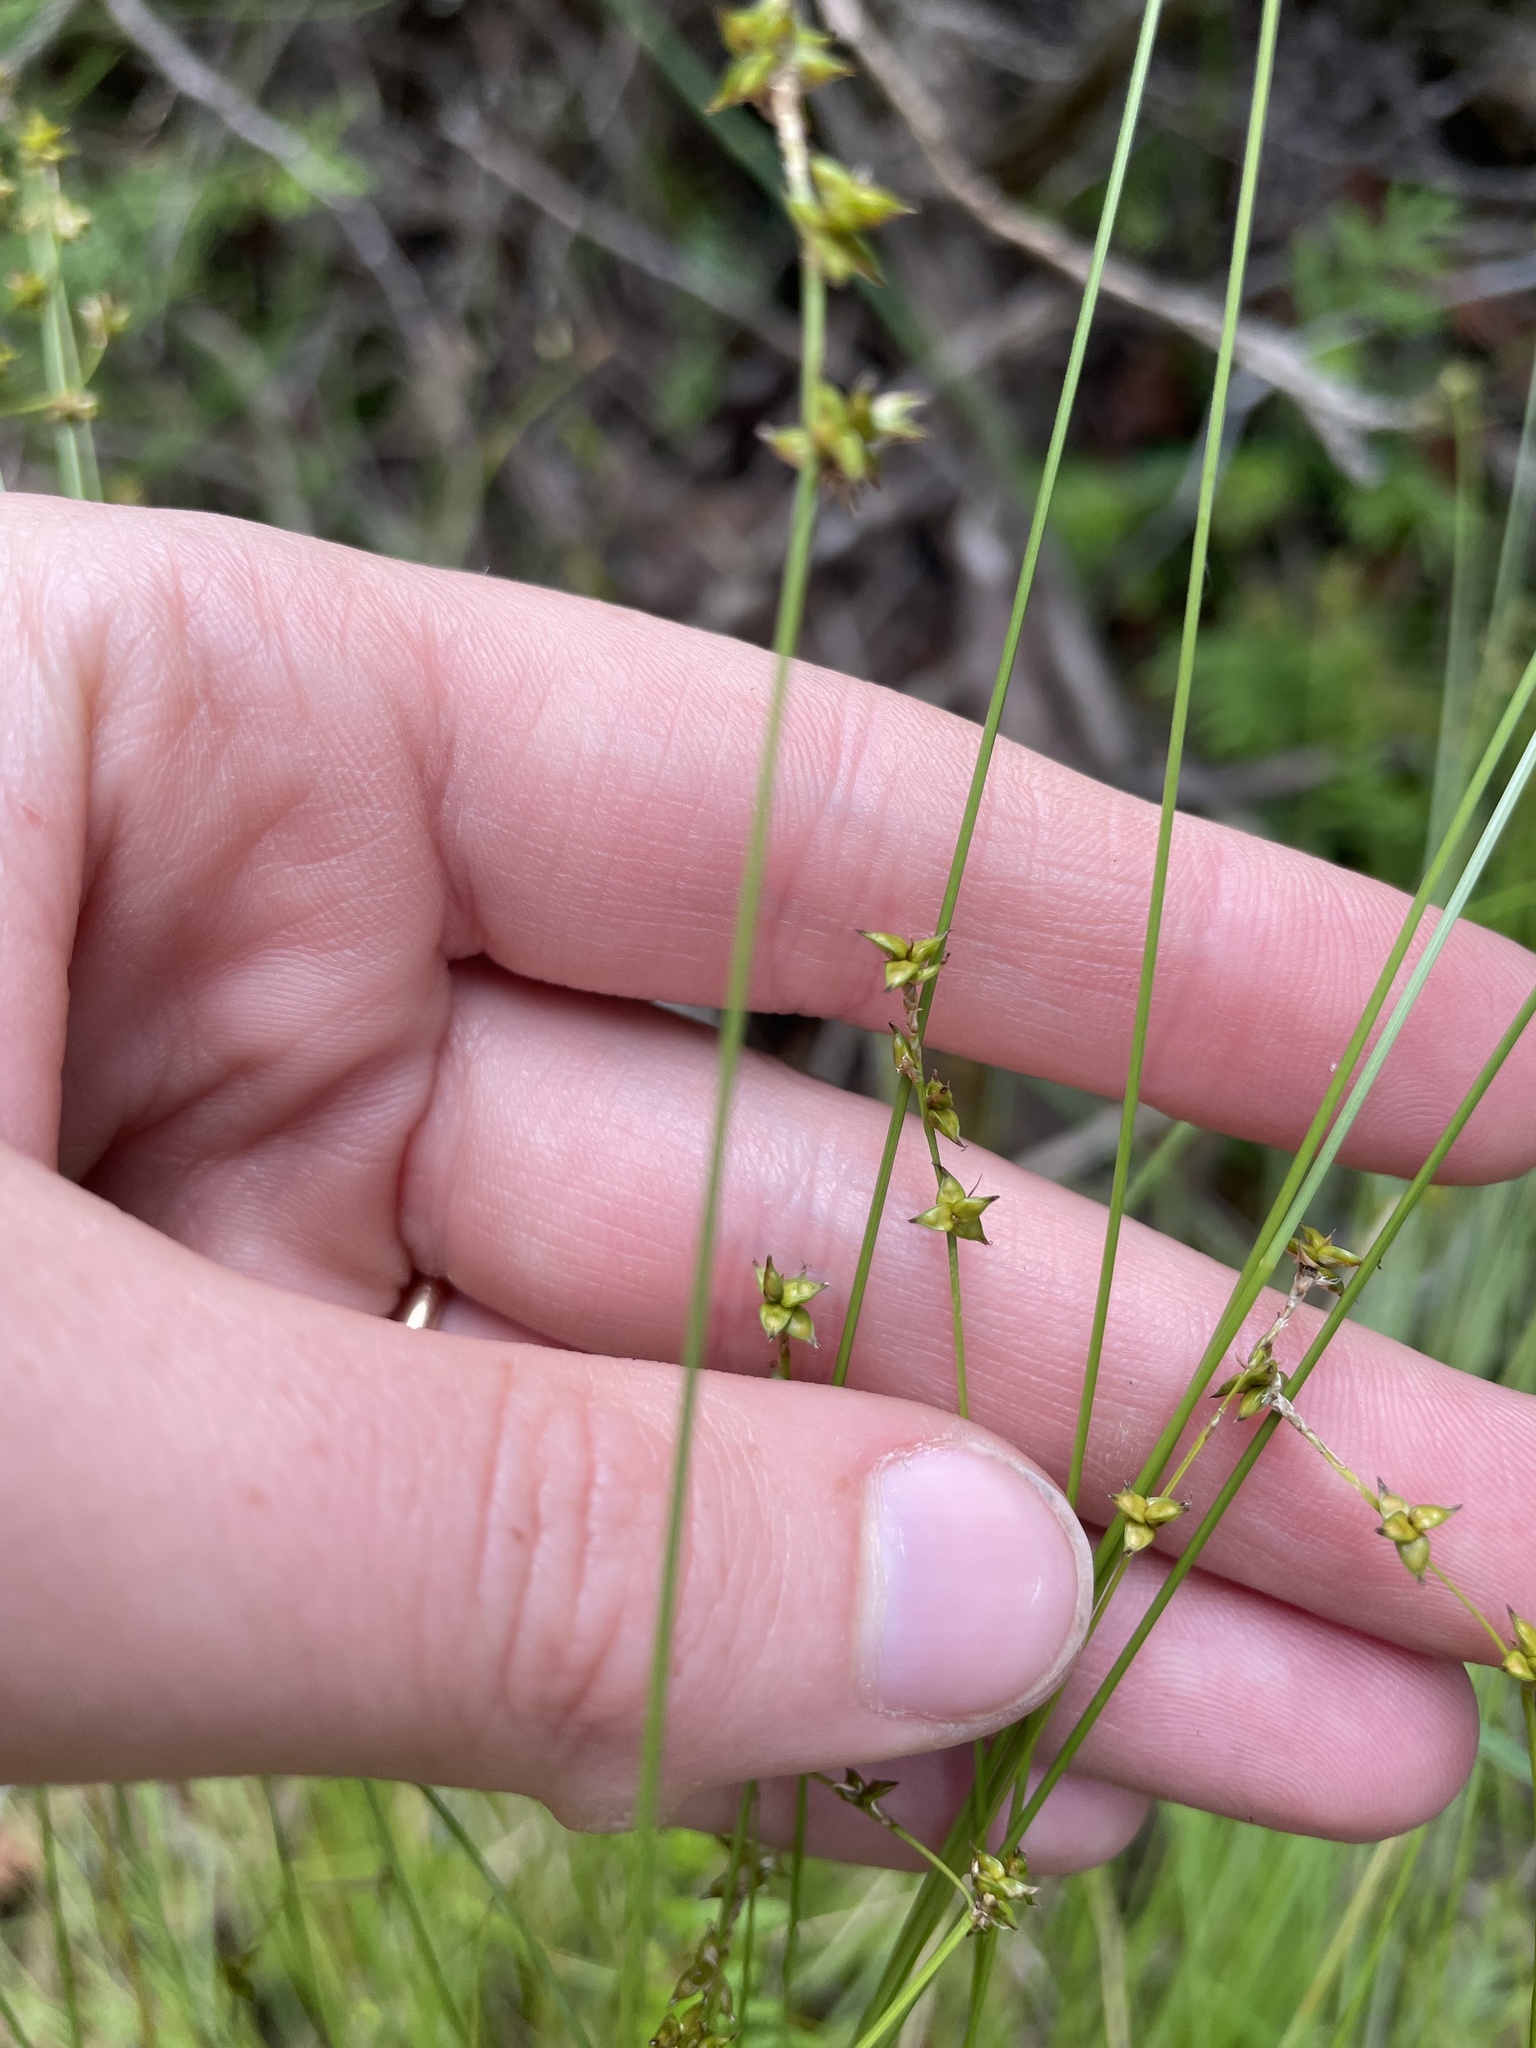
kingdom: Plantae
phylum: Tracheophyta
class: Liliopsida
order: Poales
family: Cyperaceae
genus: Carex
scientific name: Carex interior
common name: Inland sedge
